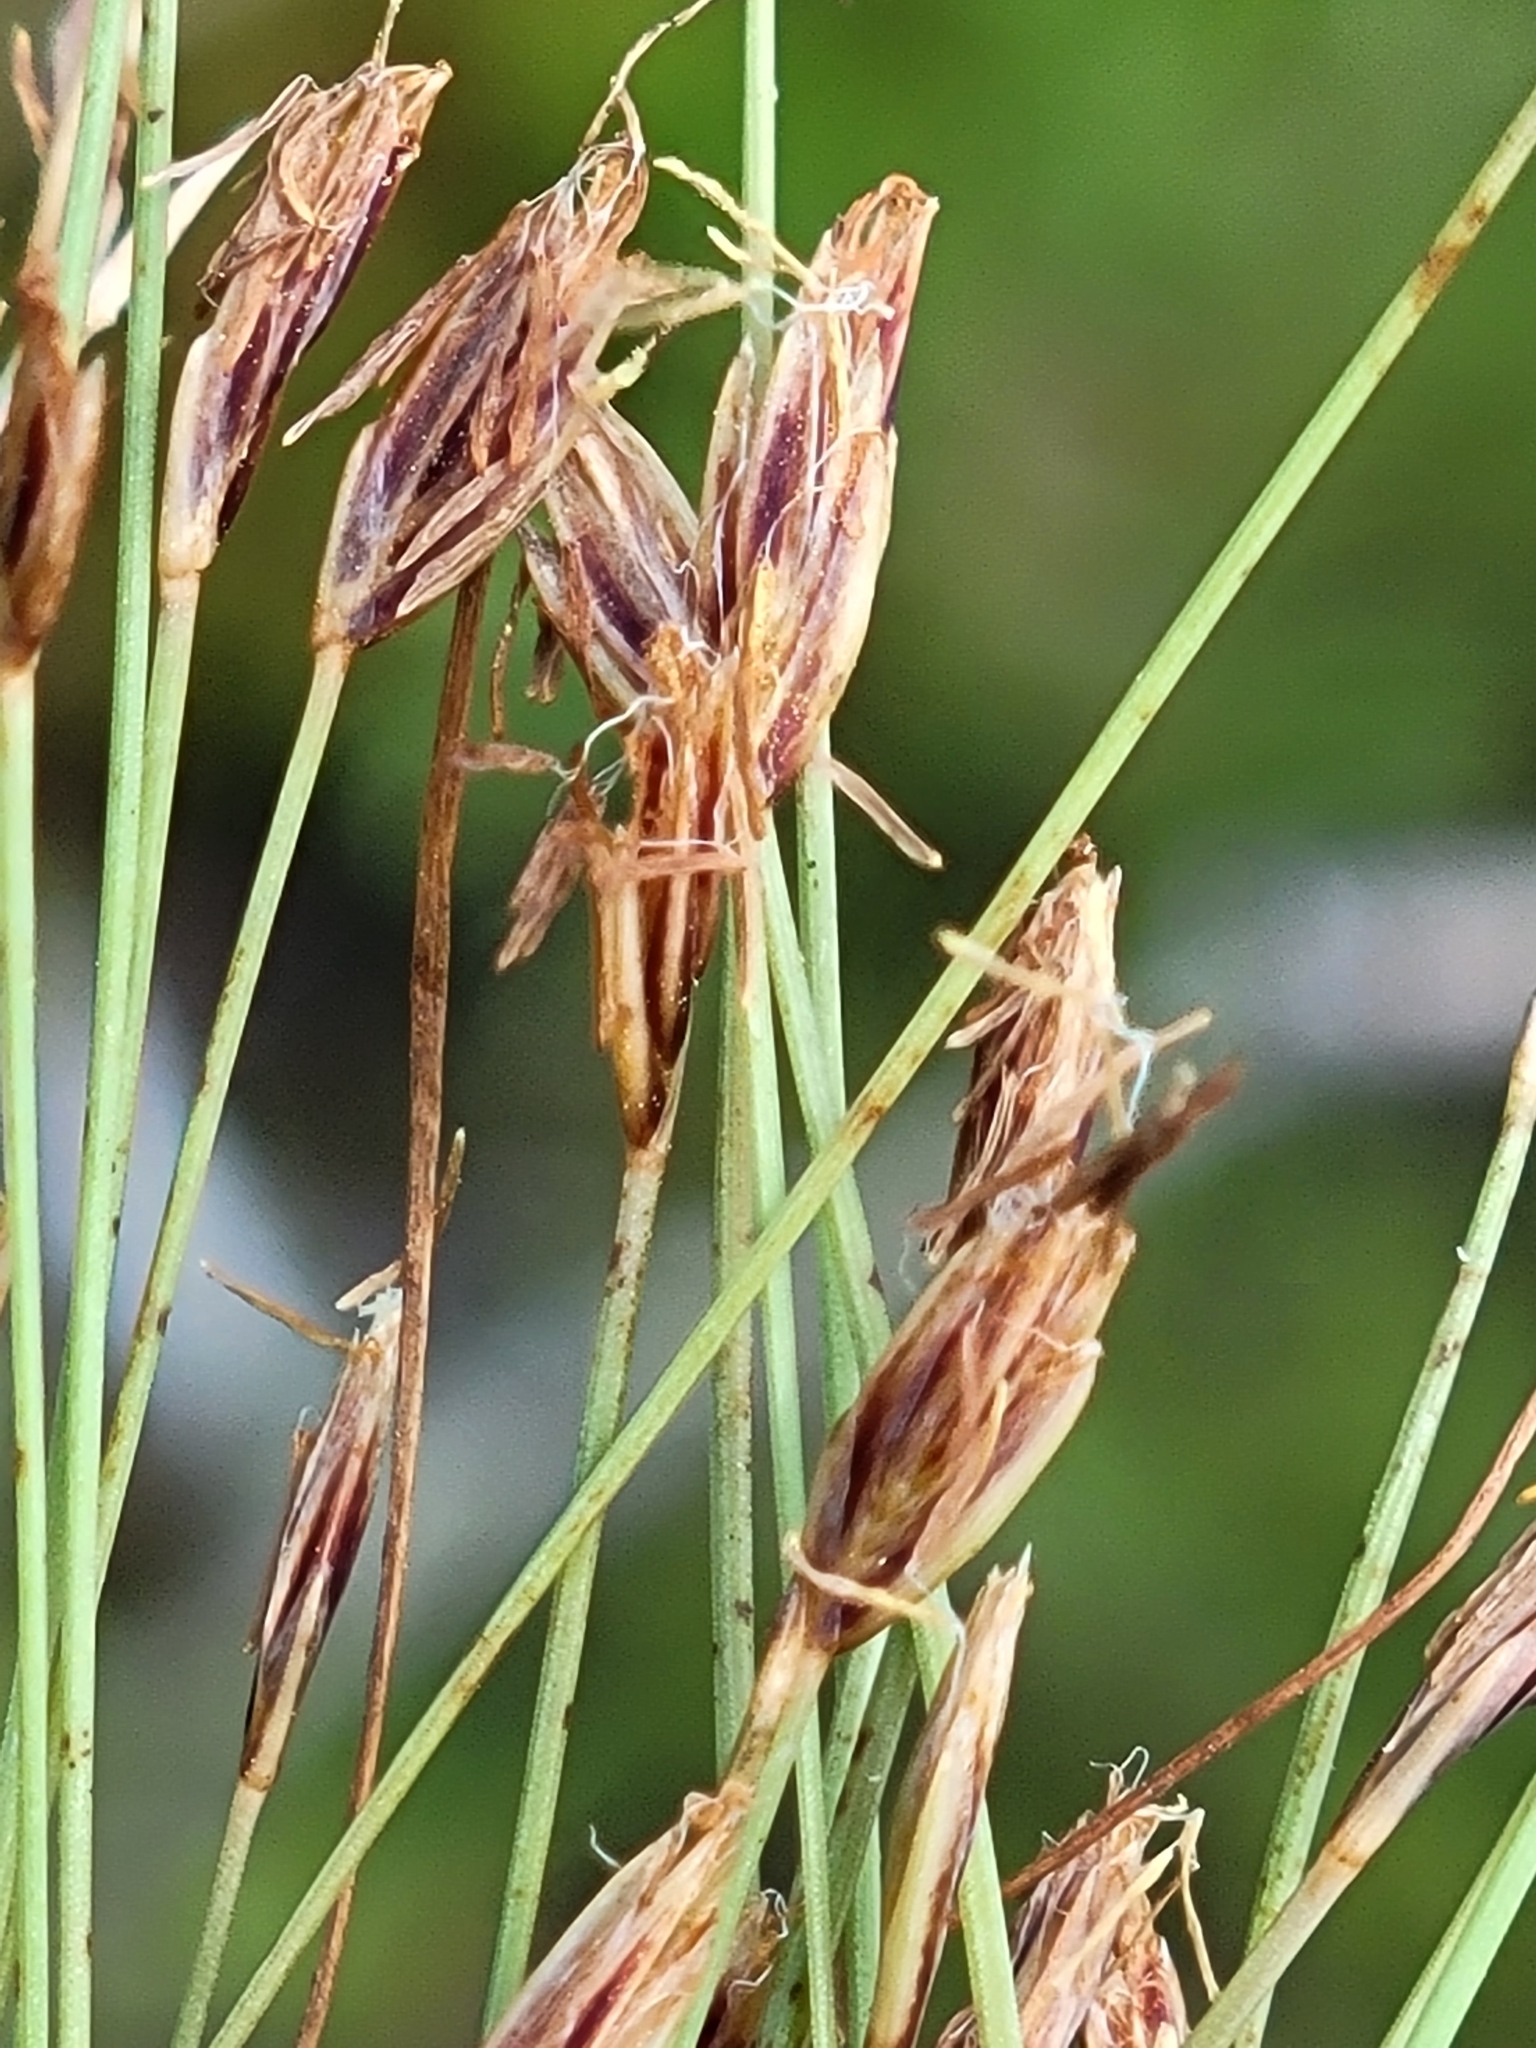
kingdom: Plantae
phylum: Tracheophyta
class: Liliopsida
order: Poales
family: Cyperaceae
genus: Eleocharis
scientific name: Eleocharis baldwinii
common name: Baldwin's spike-rush
